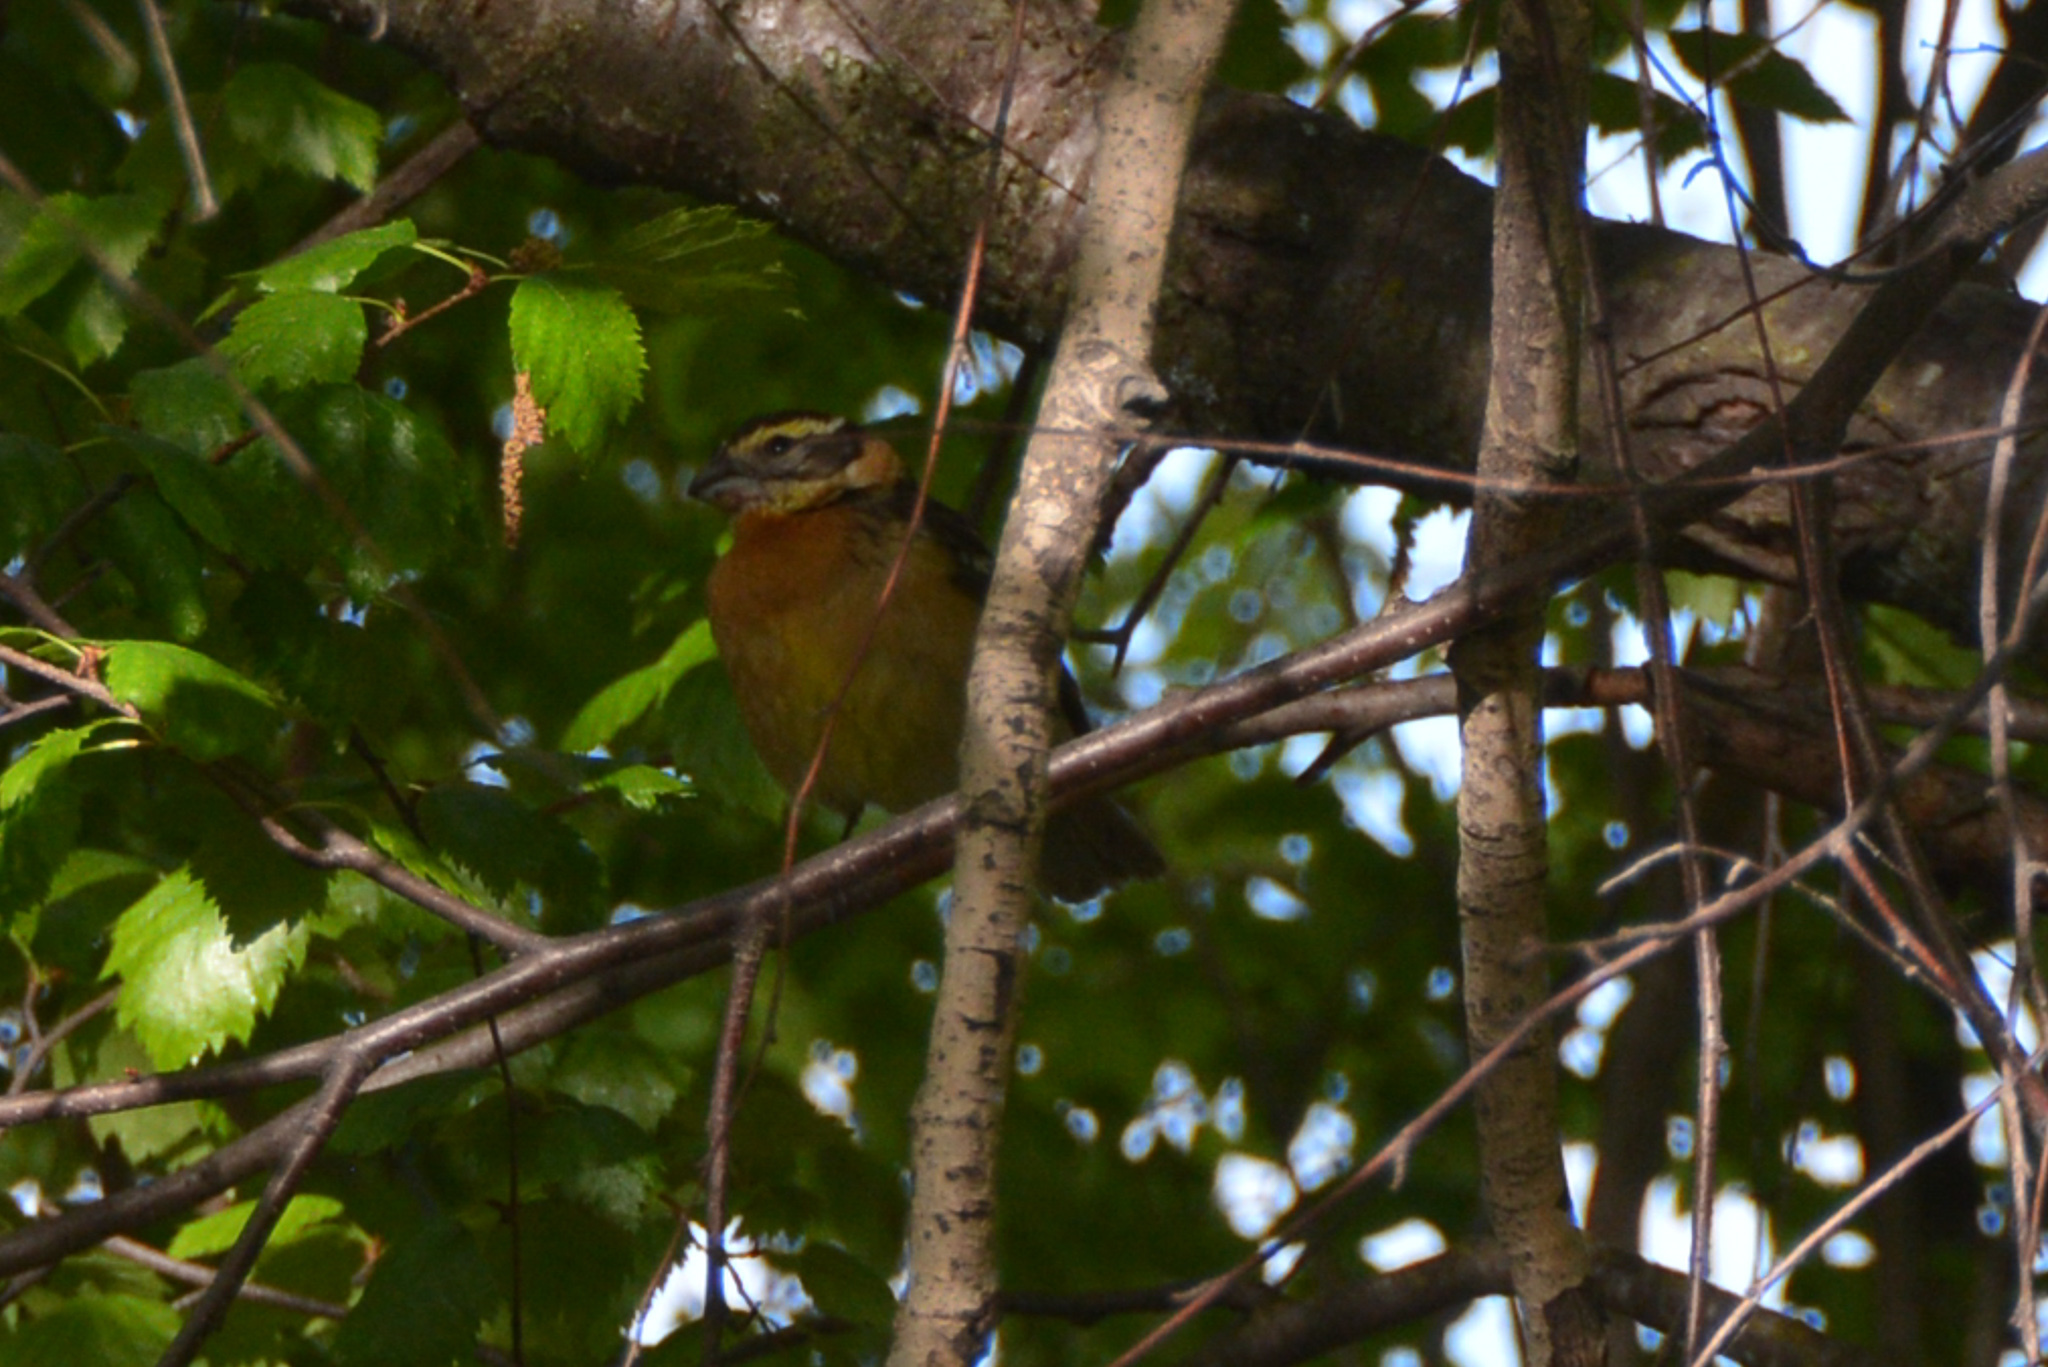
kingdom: Animalia
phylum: Chordata
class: Aves
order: Passeriformes
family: Cardinalidae
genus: Pheucticus
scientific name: Pheucticus melanocephalus
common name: Black-headed grosbeak
